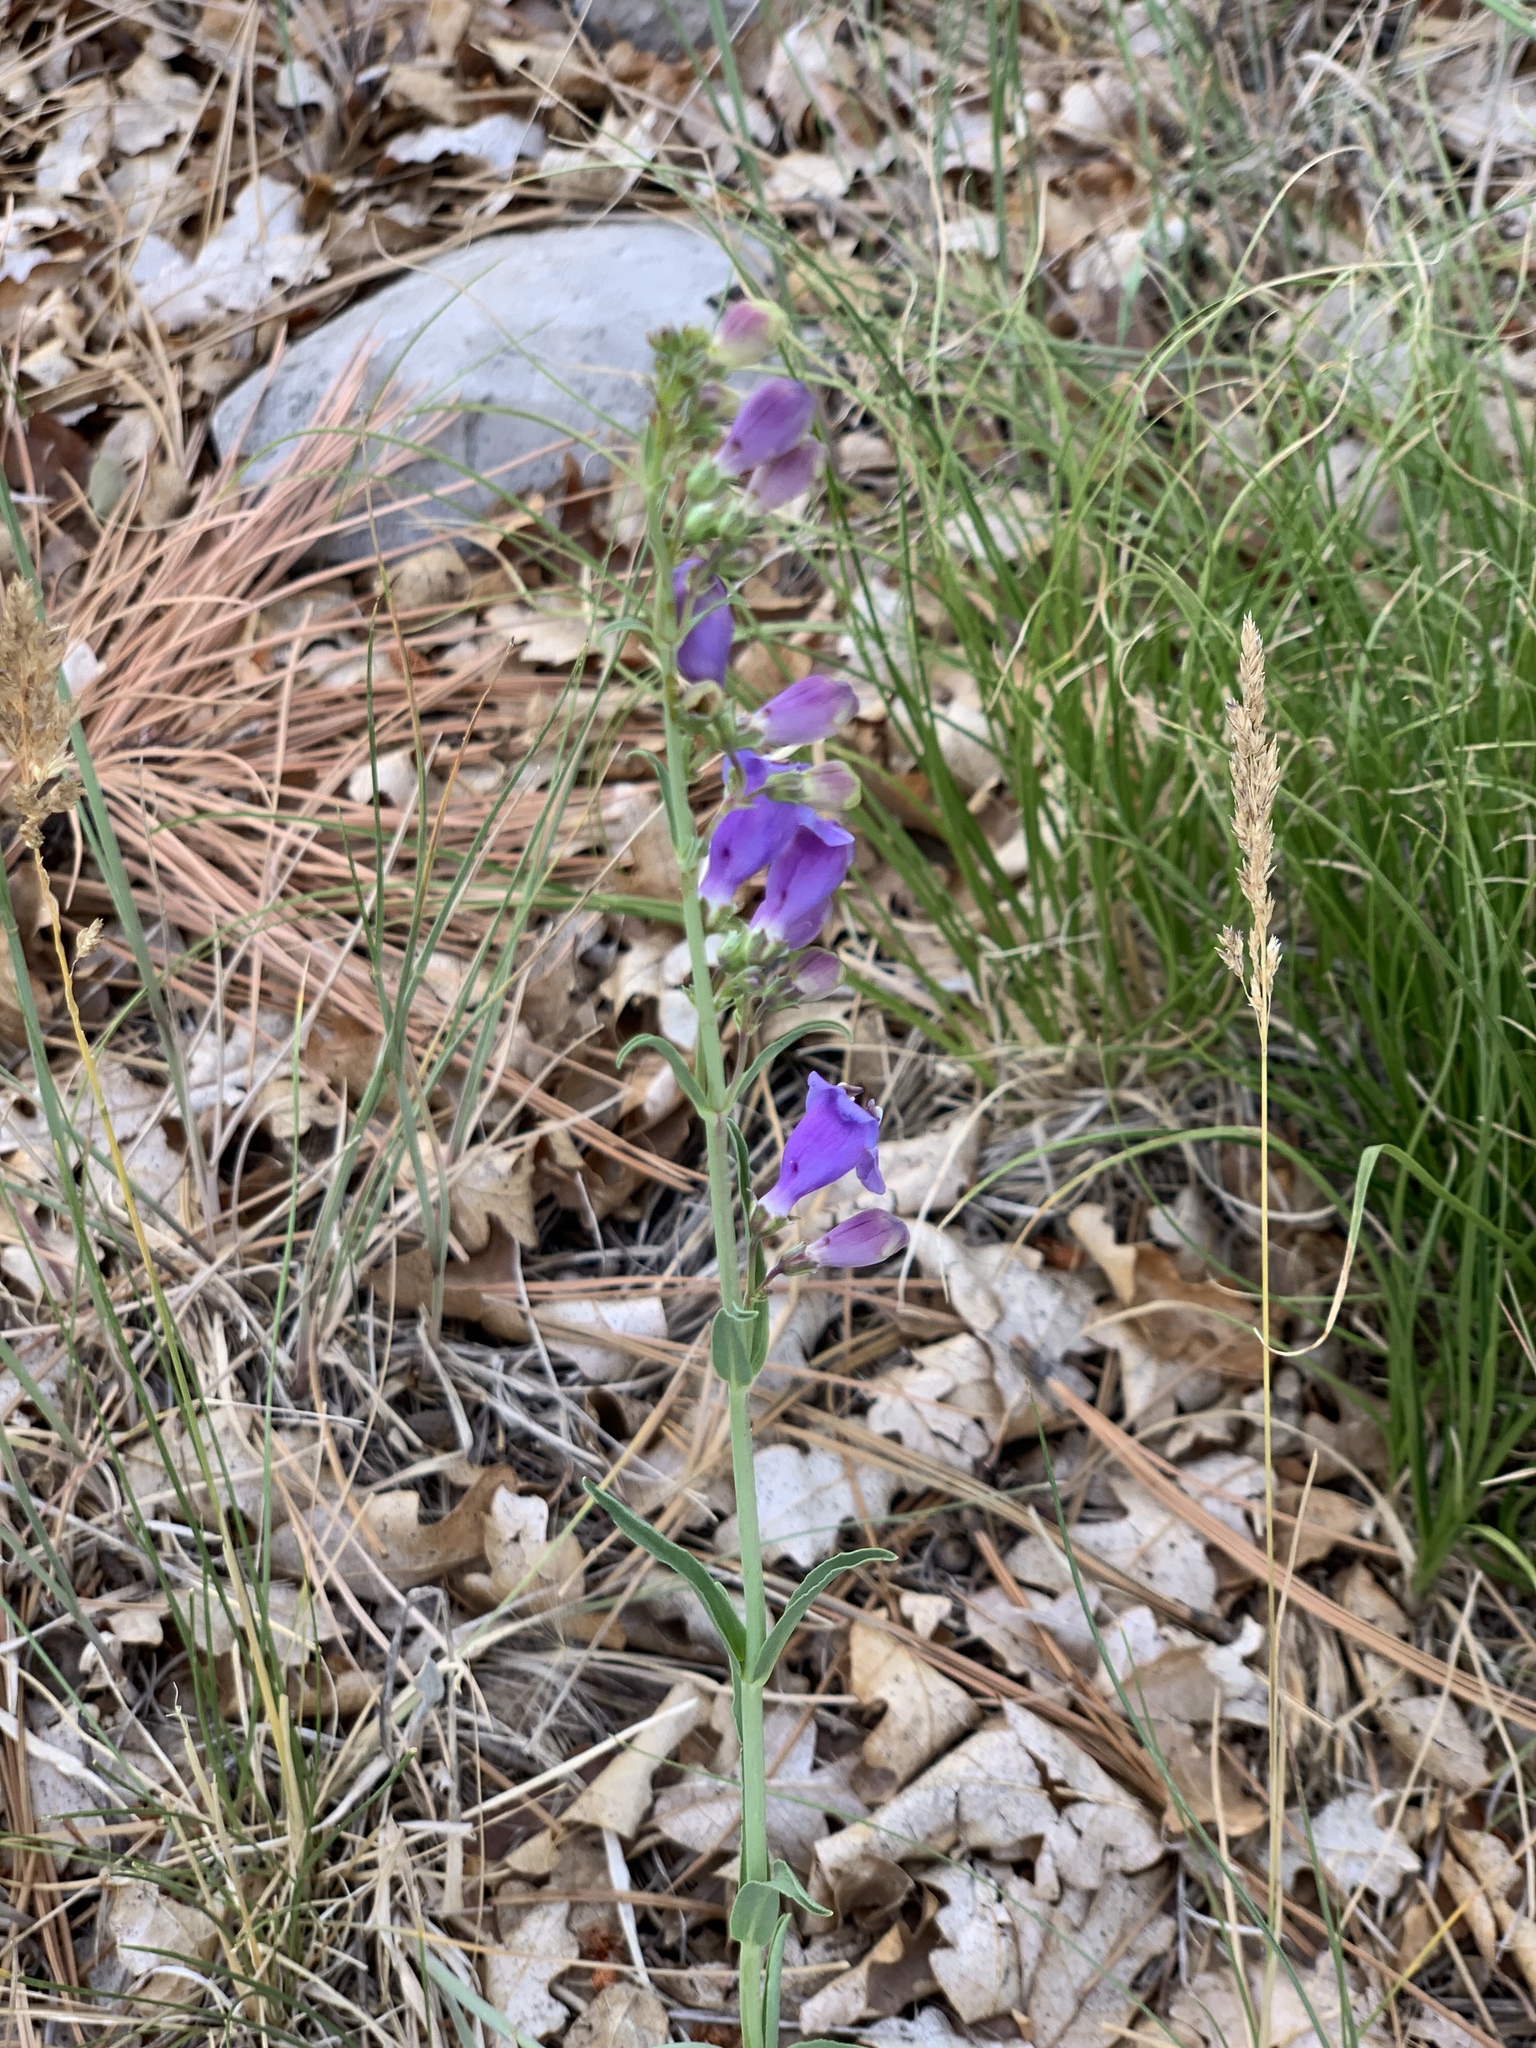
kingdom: Plantae
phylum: Tracheophyta
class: Magnoliopsida
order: Lamiales
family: Plantaginaceae
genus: Penstemon
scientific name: Penstemon neomexicanus
